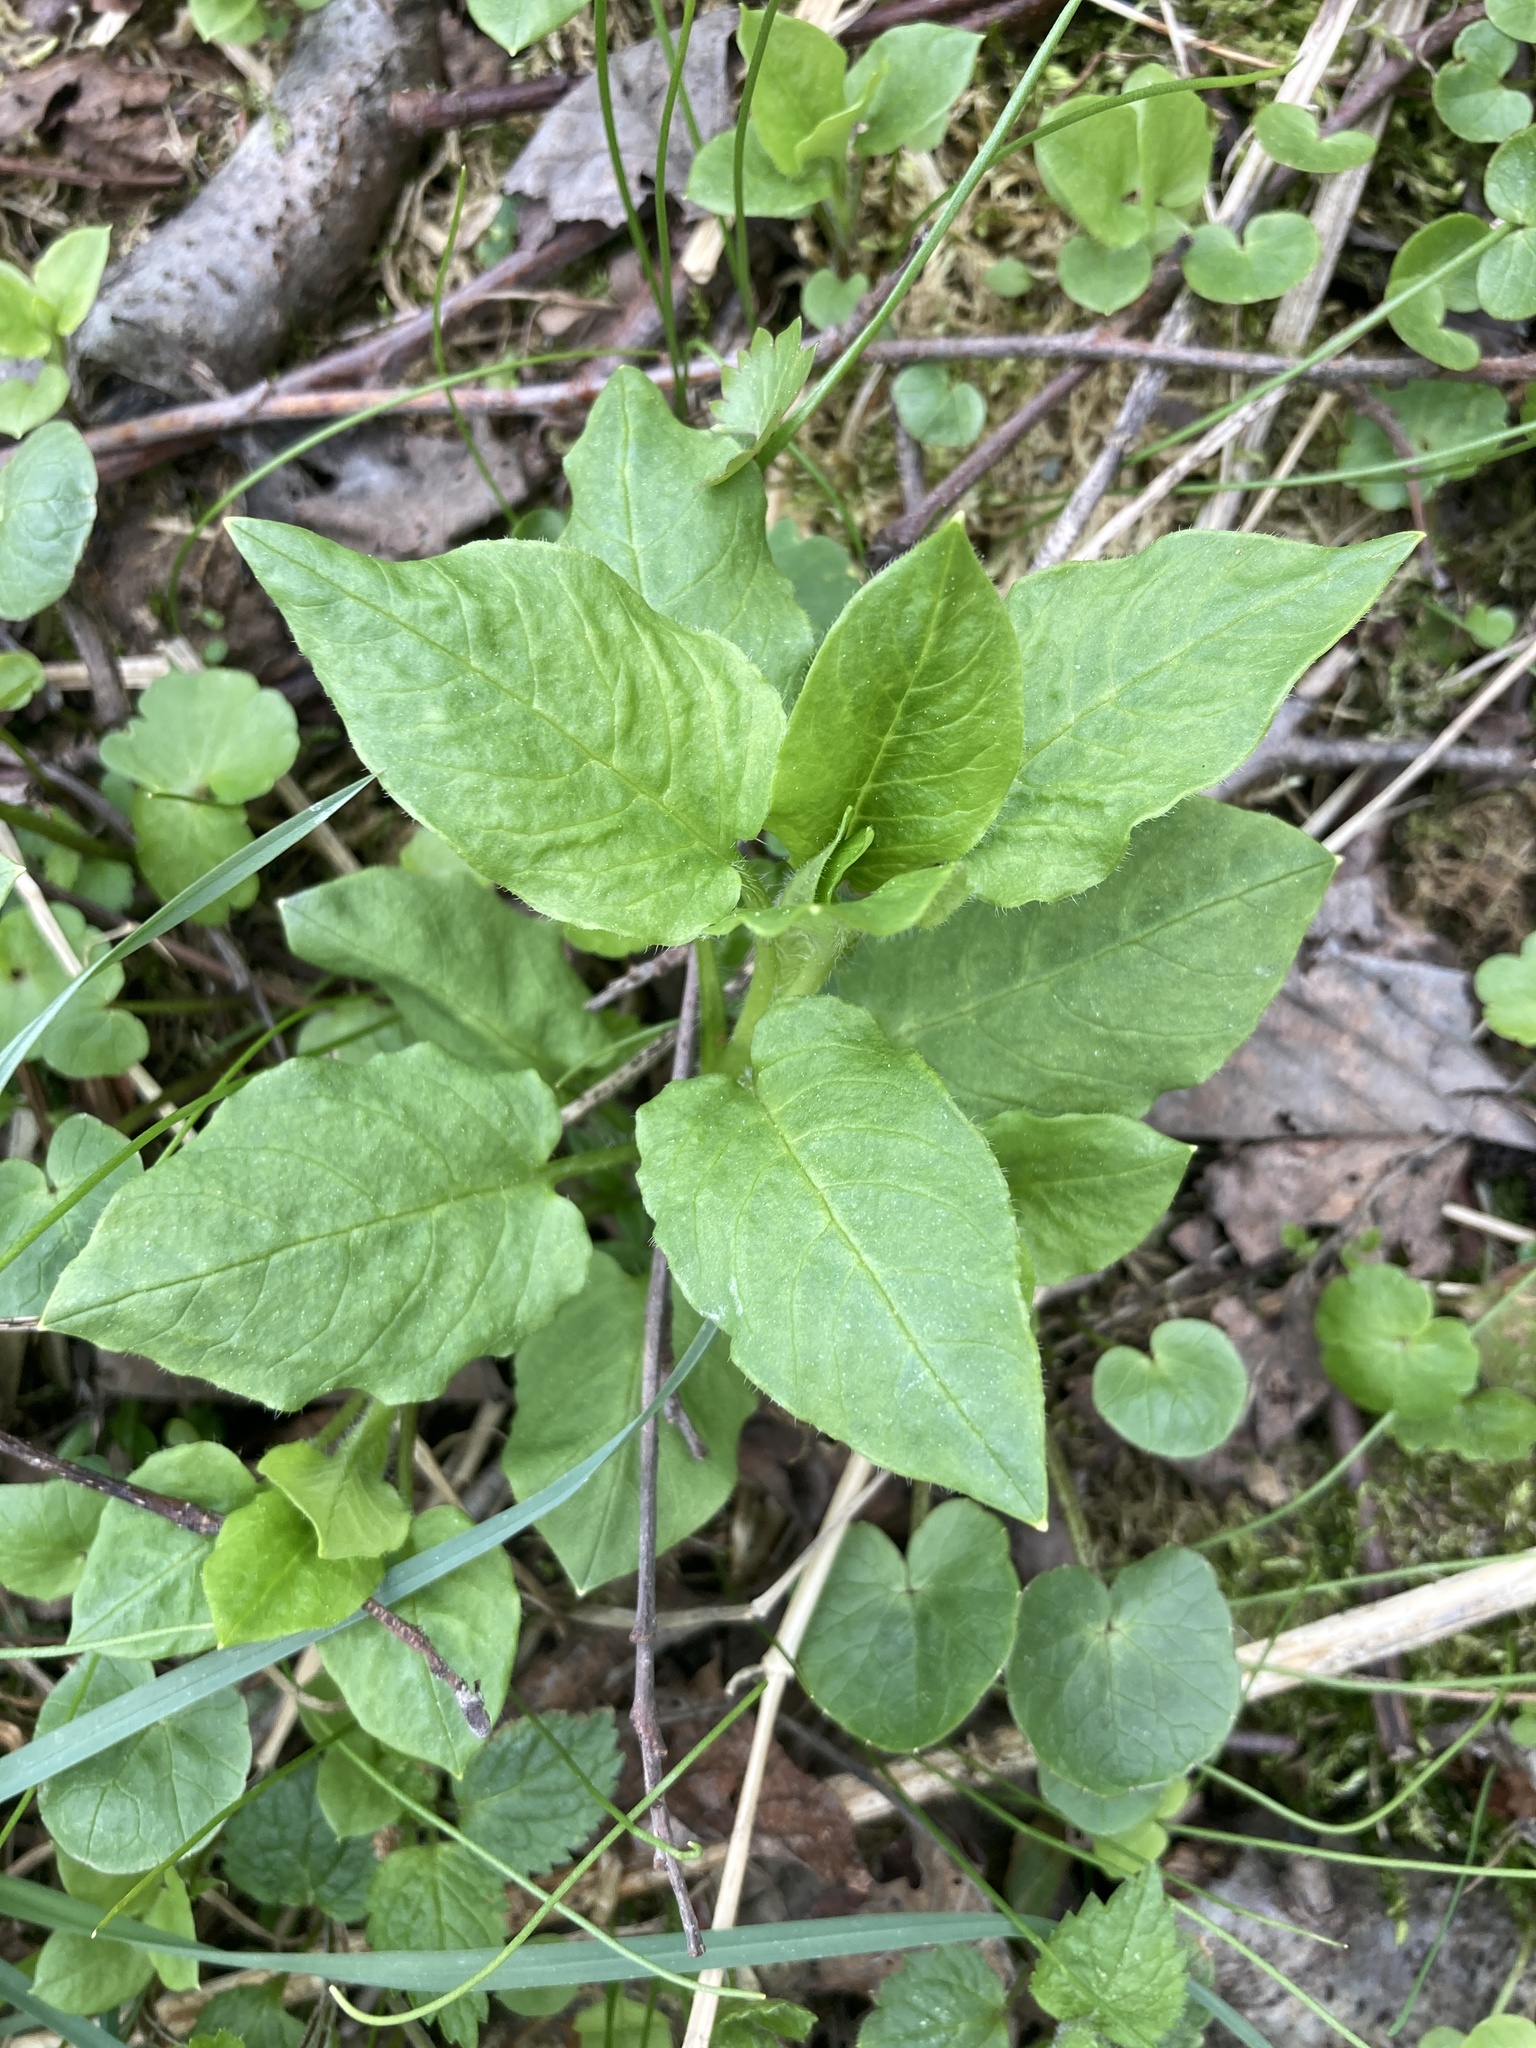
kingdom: Plantae
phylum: Tracheophyta
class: Magnoliopsida
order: Caryophyllales
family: Caryophyllaceae
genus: Stellaria
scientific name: Stellaria nemorum
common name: Wood stitchwort
